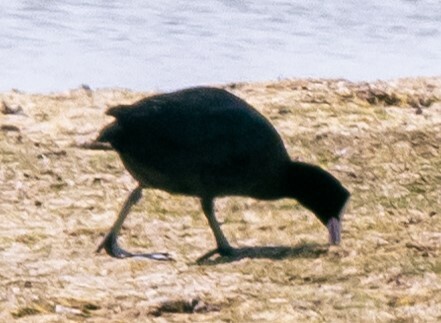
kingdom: Animalia
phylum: Chordata
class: Aves
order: Gruiformes
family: Rallidae
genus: Fulica
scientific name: Fulica atra
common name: Eurasian coot
